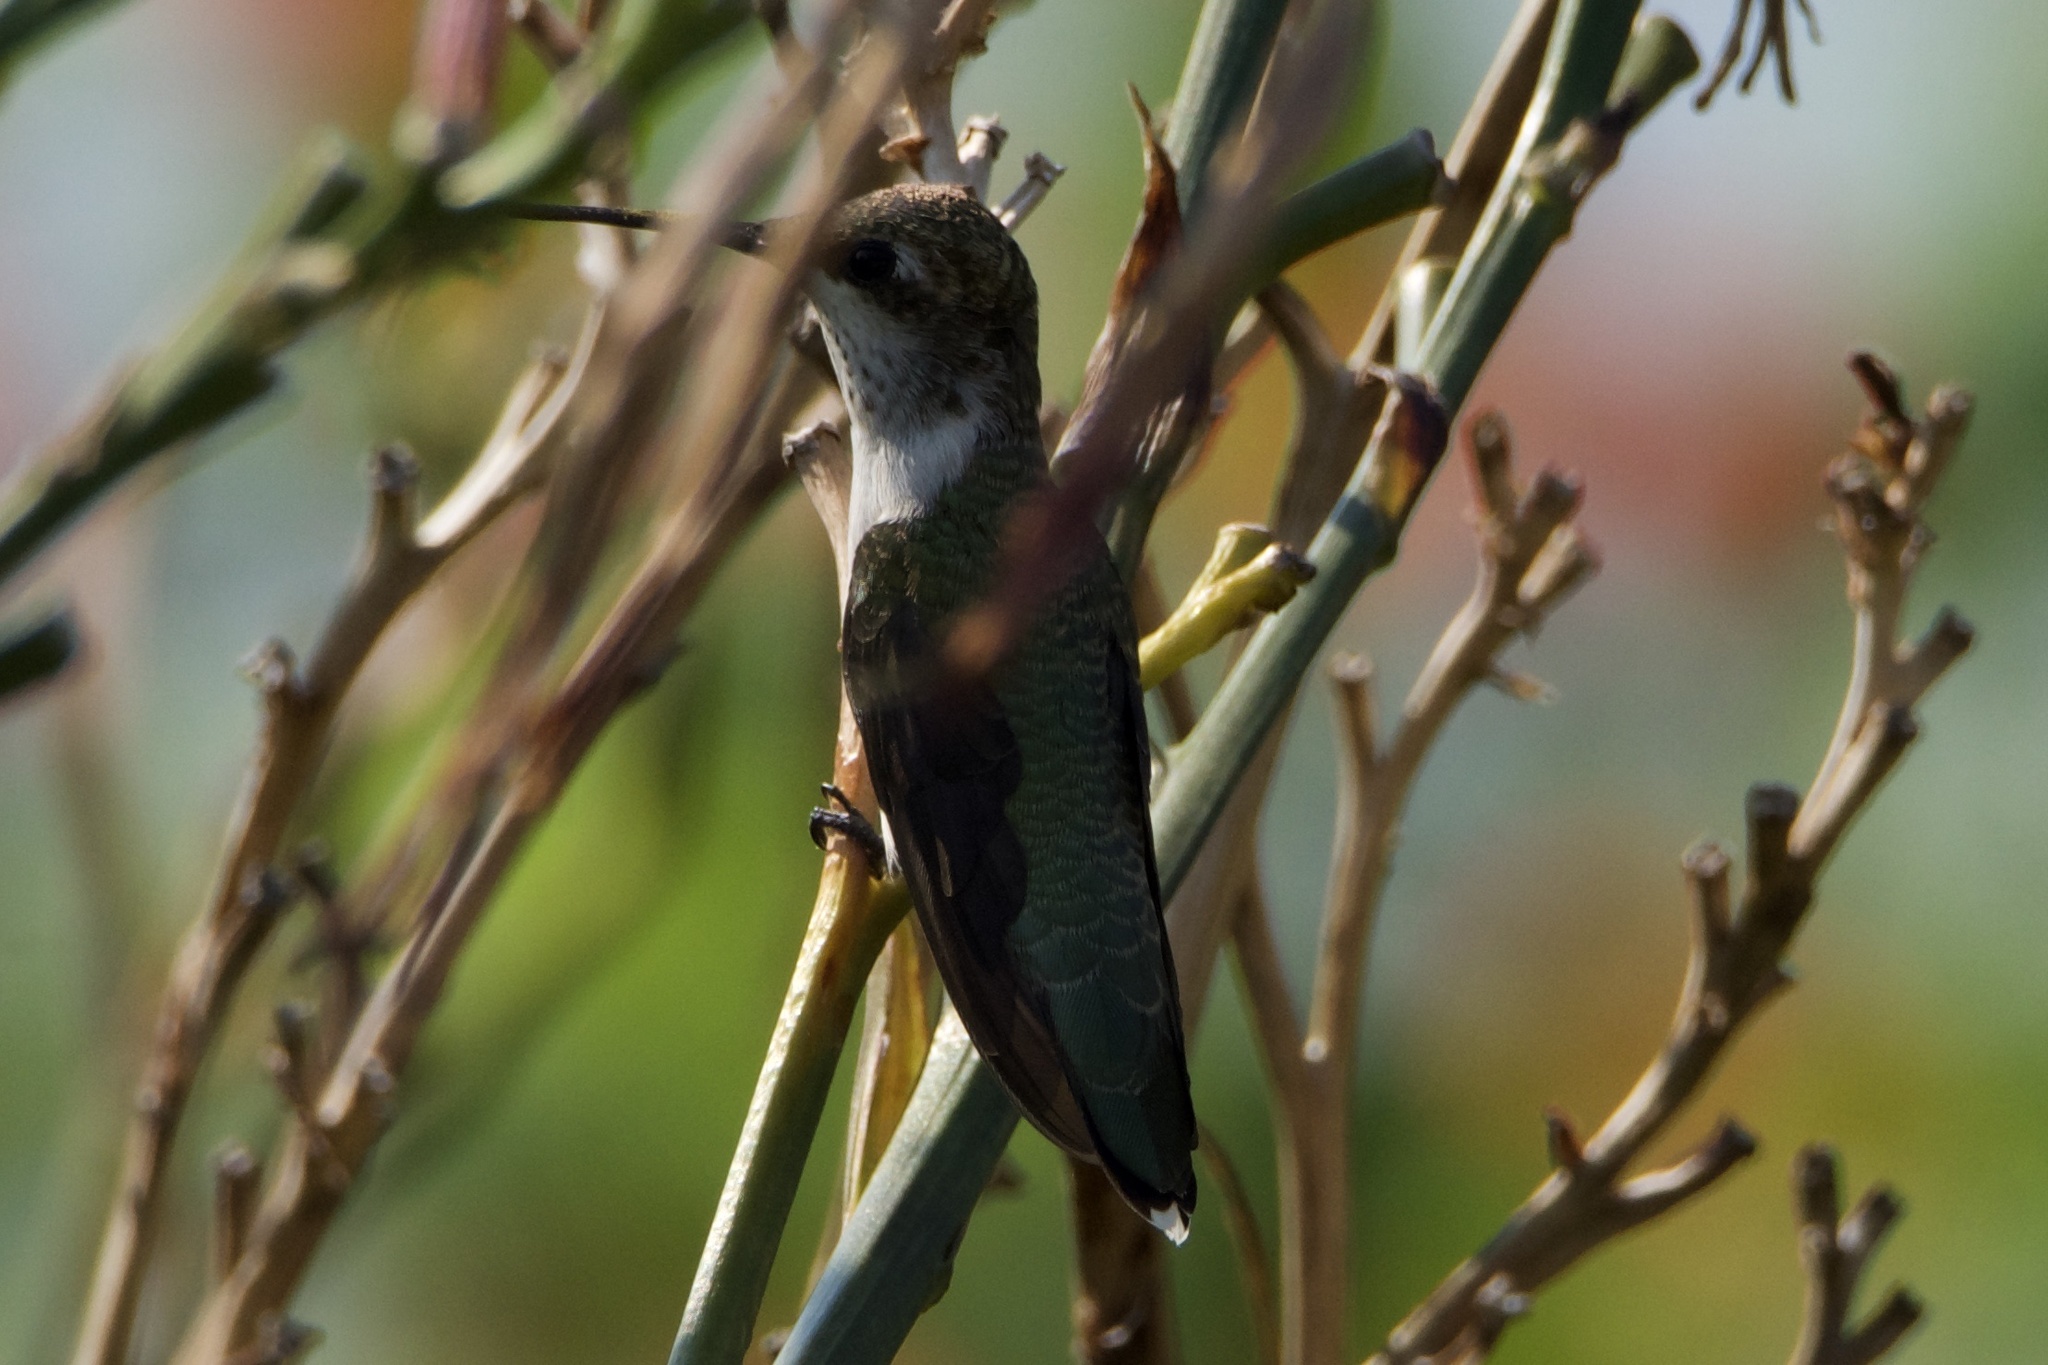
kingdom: Animalia
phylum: Chordata
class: Aves
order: Apodiformes
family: Trochilidae
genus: Archilochus
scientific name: Archilochus alexandri
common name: Black-chinned hummingbird
